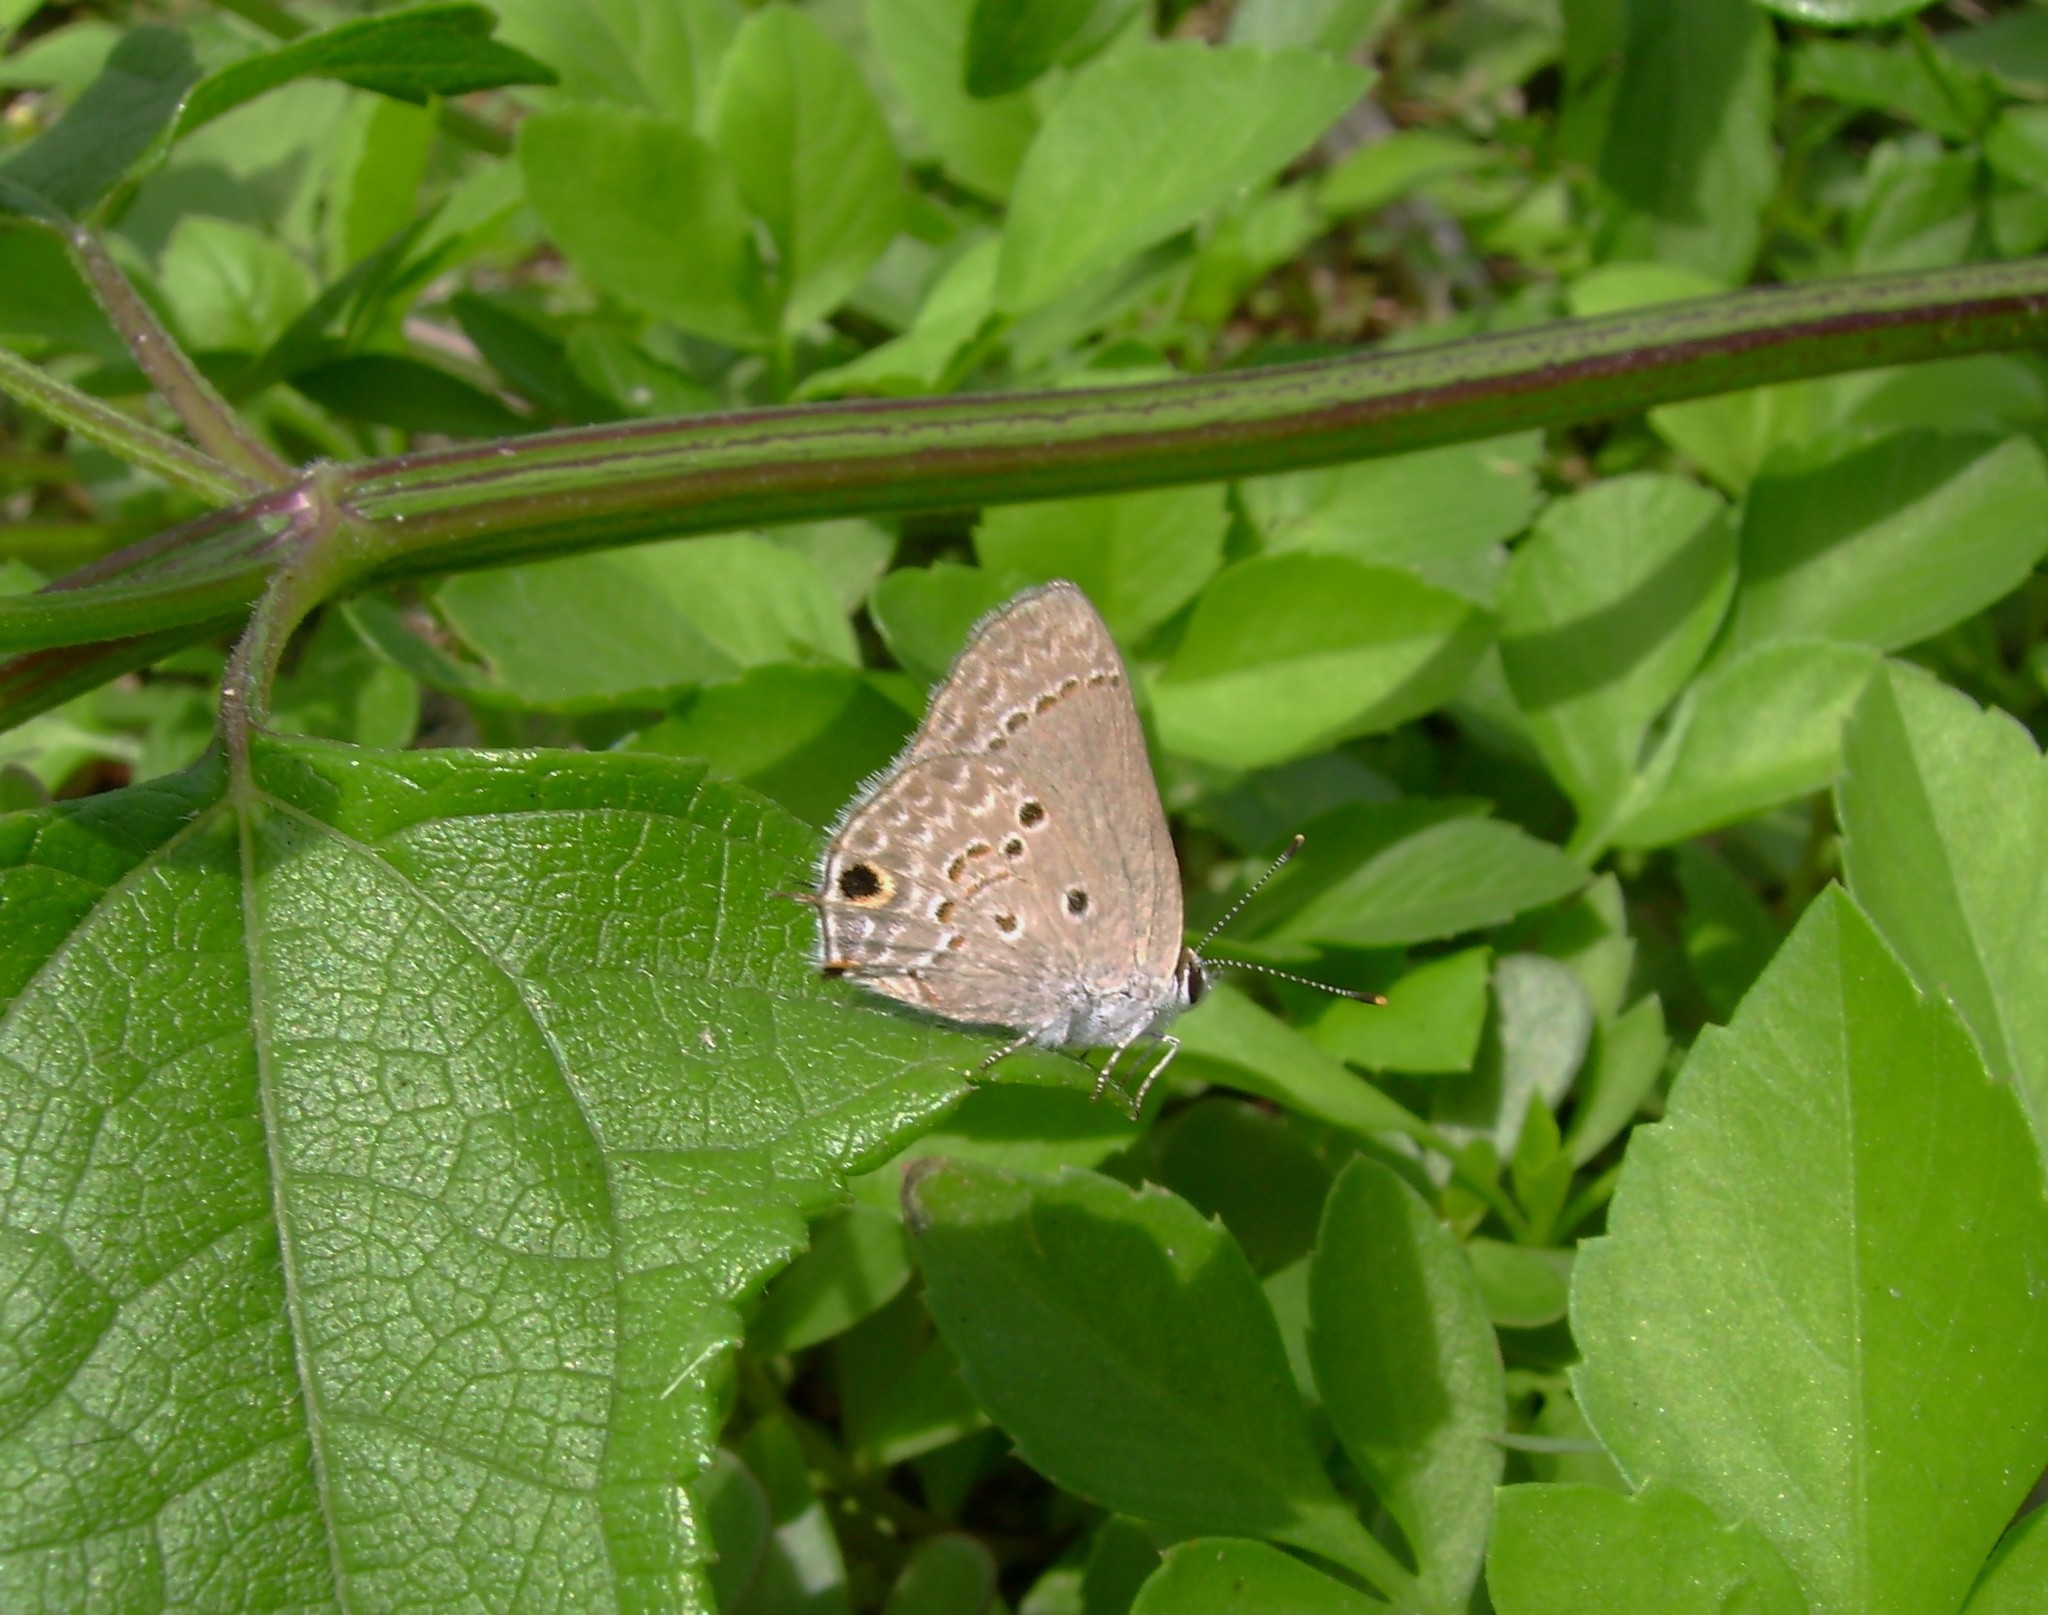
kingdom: Animalia
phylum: Arthropoda
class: Insecta
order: Lepidoptera
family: Lycaenidae
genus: Callicista
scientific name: Callicista columella
